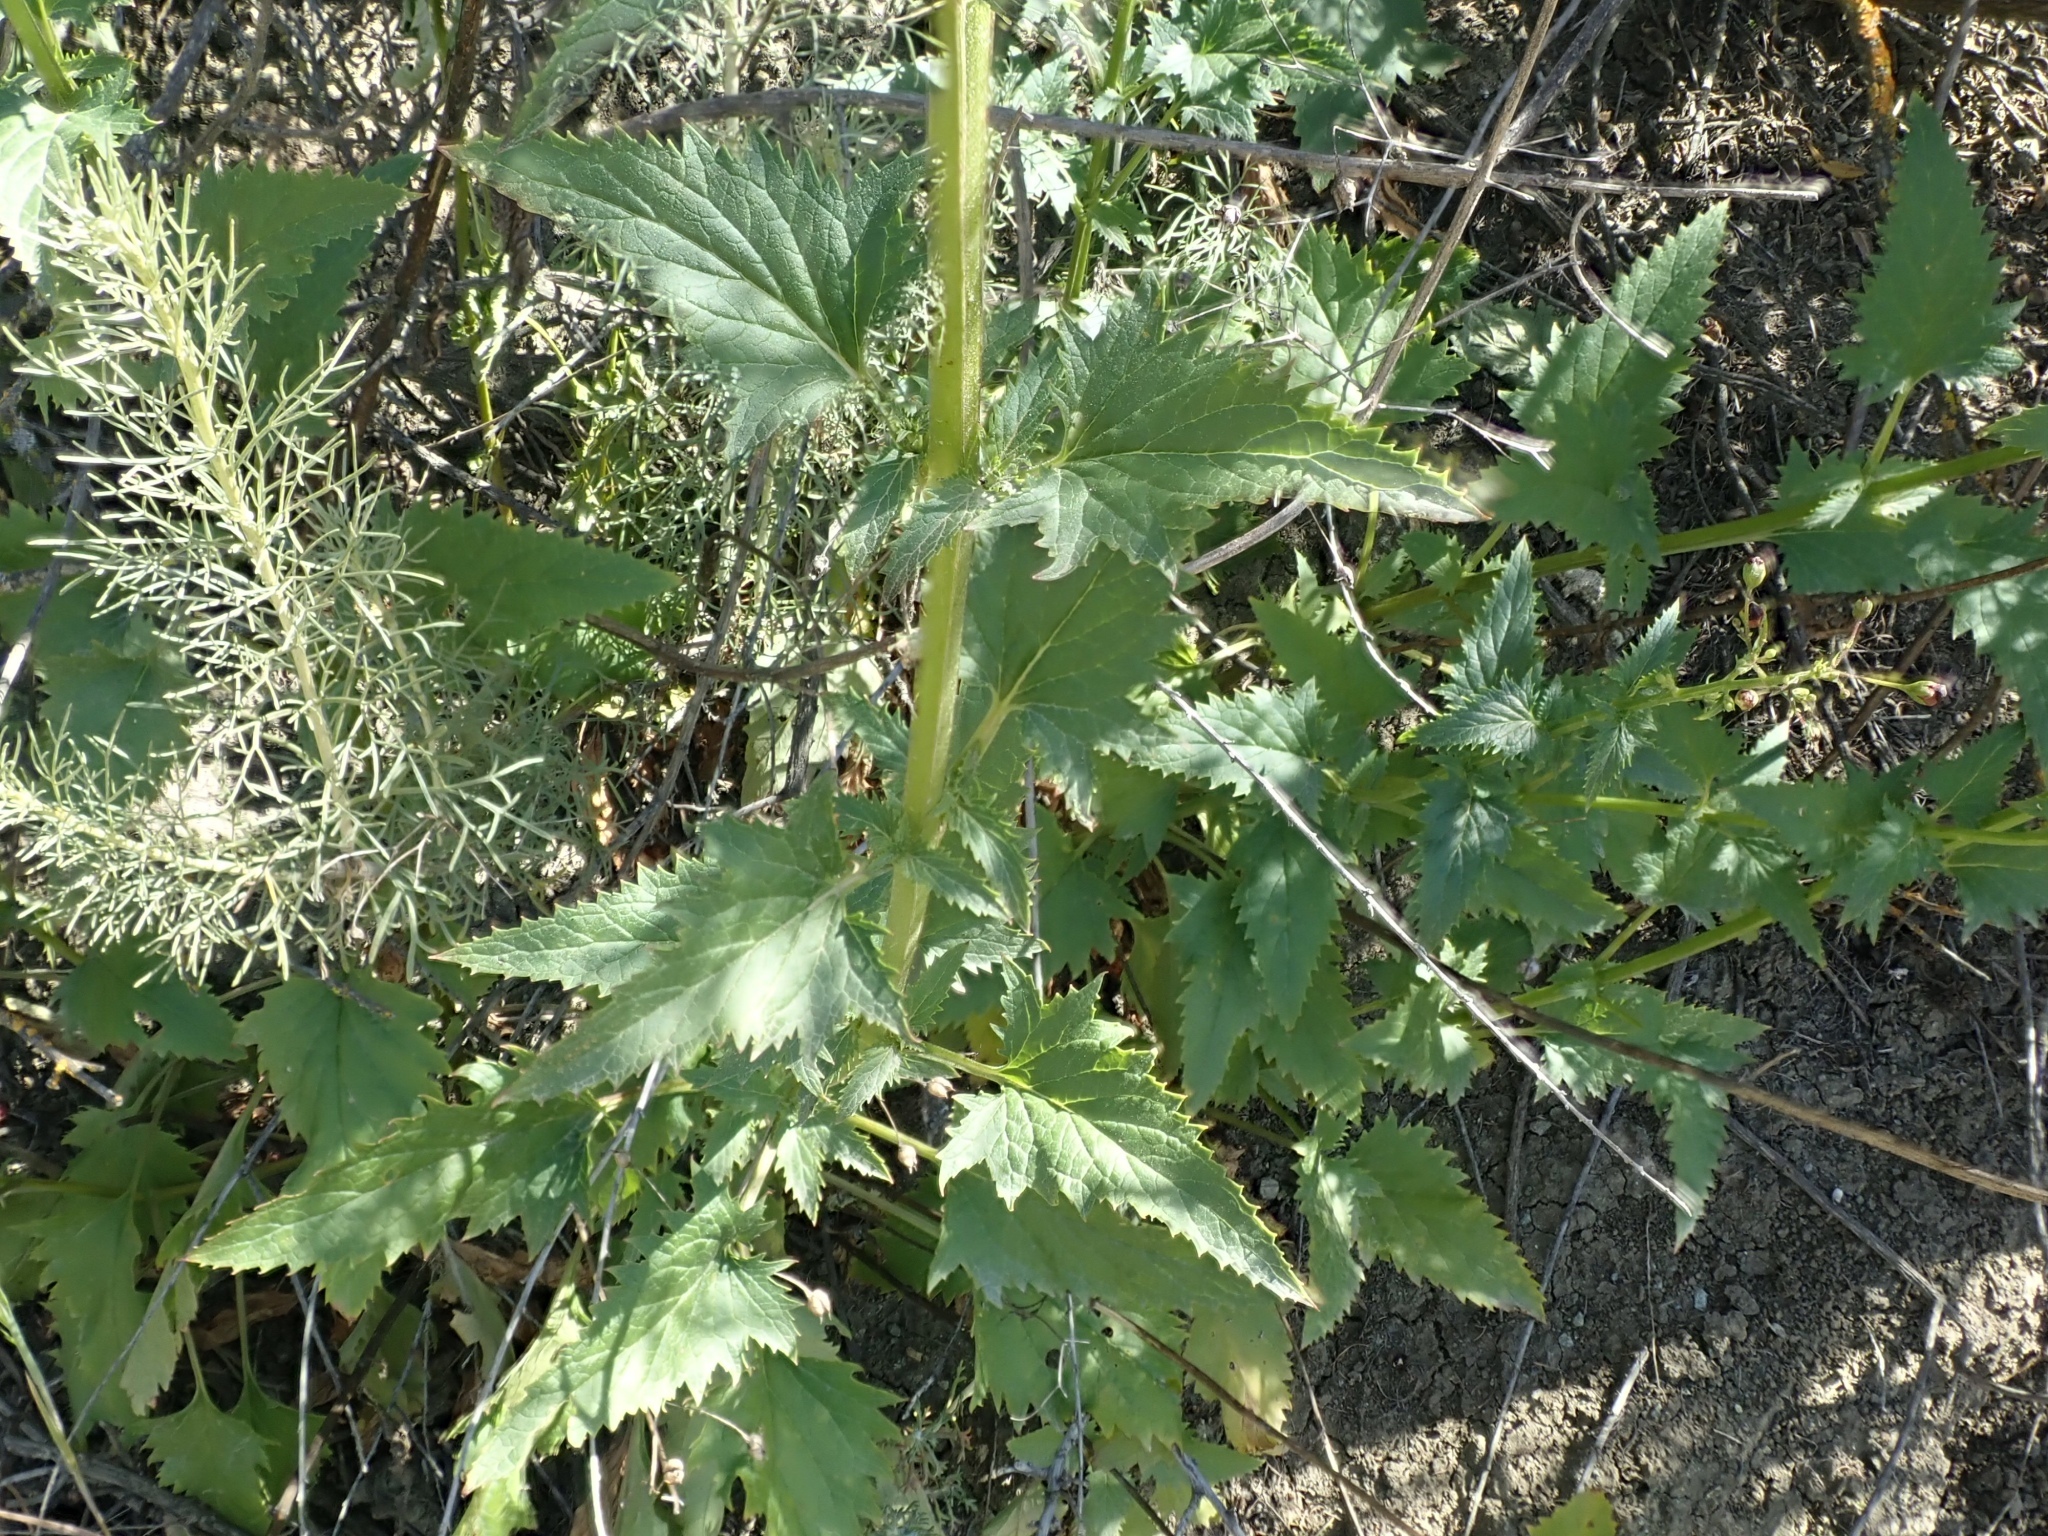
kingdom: Plantae
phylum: Tracheophyta
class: Magnoliopsida
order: Lamiales
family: Scrophulariaceae
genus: Scrophularia
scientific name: Scrophularia californica
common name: California figwort
